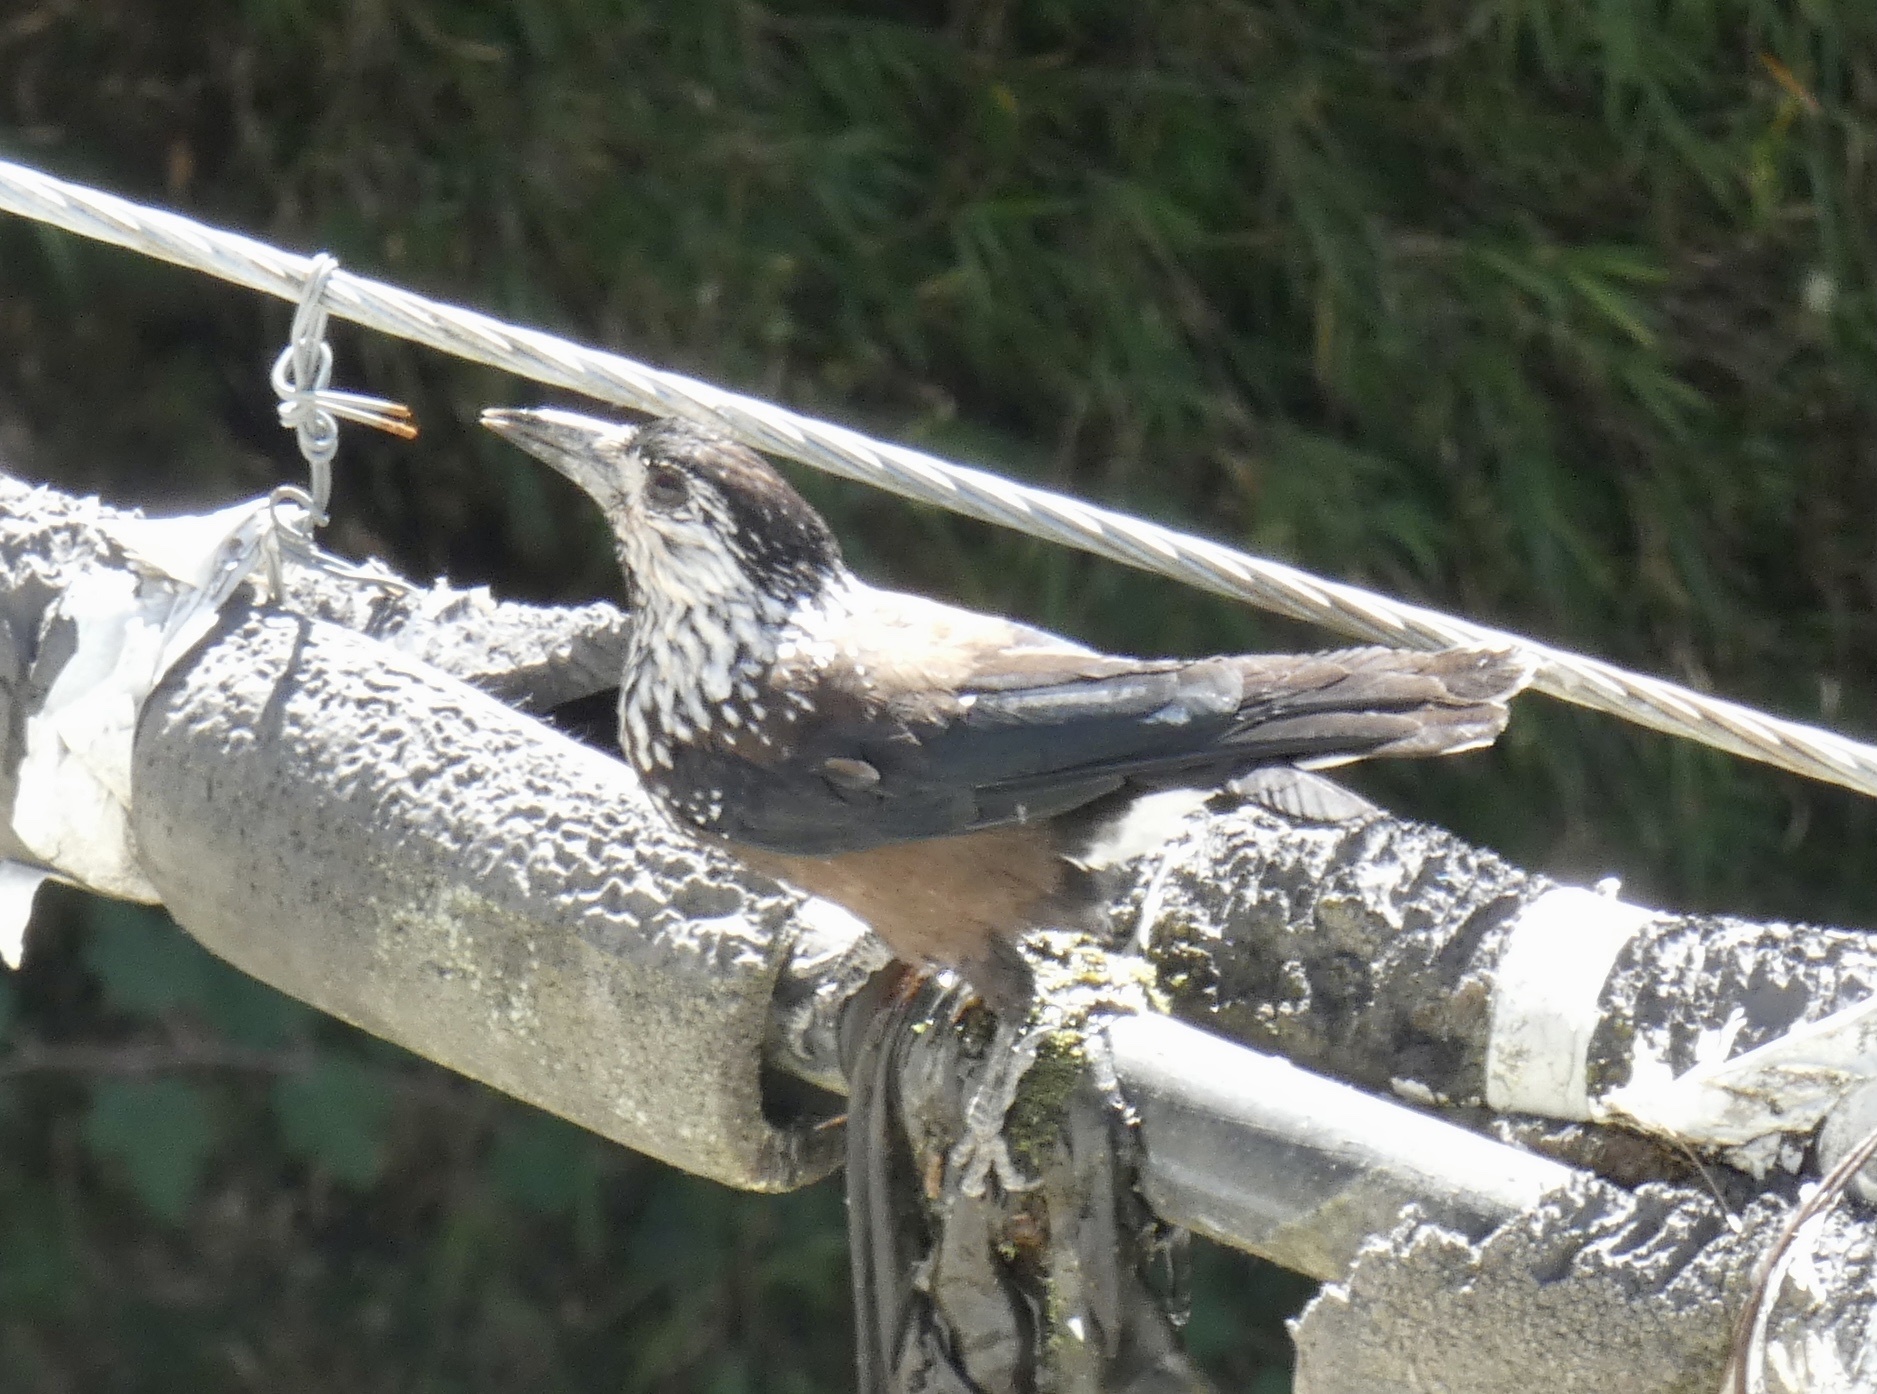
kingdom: Animalia
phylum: Chordata
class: Aves
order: Passeriformes
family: Corvidae
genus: Nucifraga
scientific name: Nucifraga caryocatactes
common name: Spotted nutcracker
